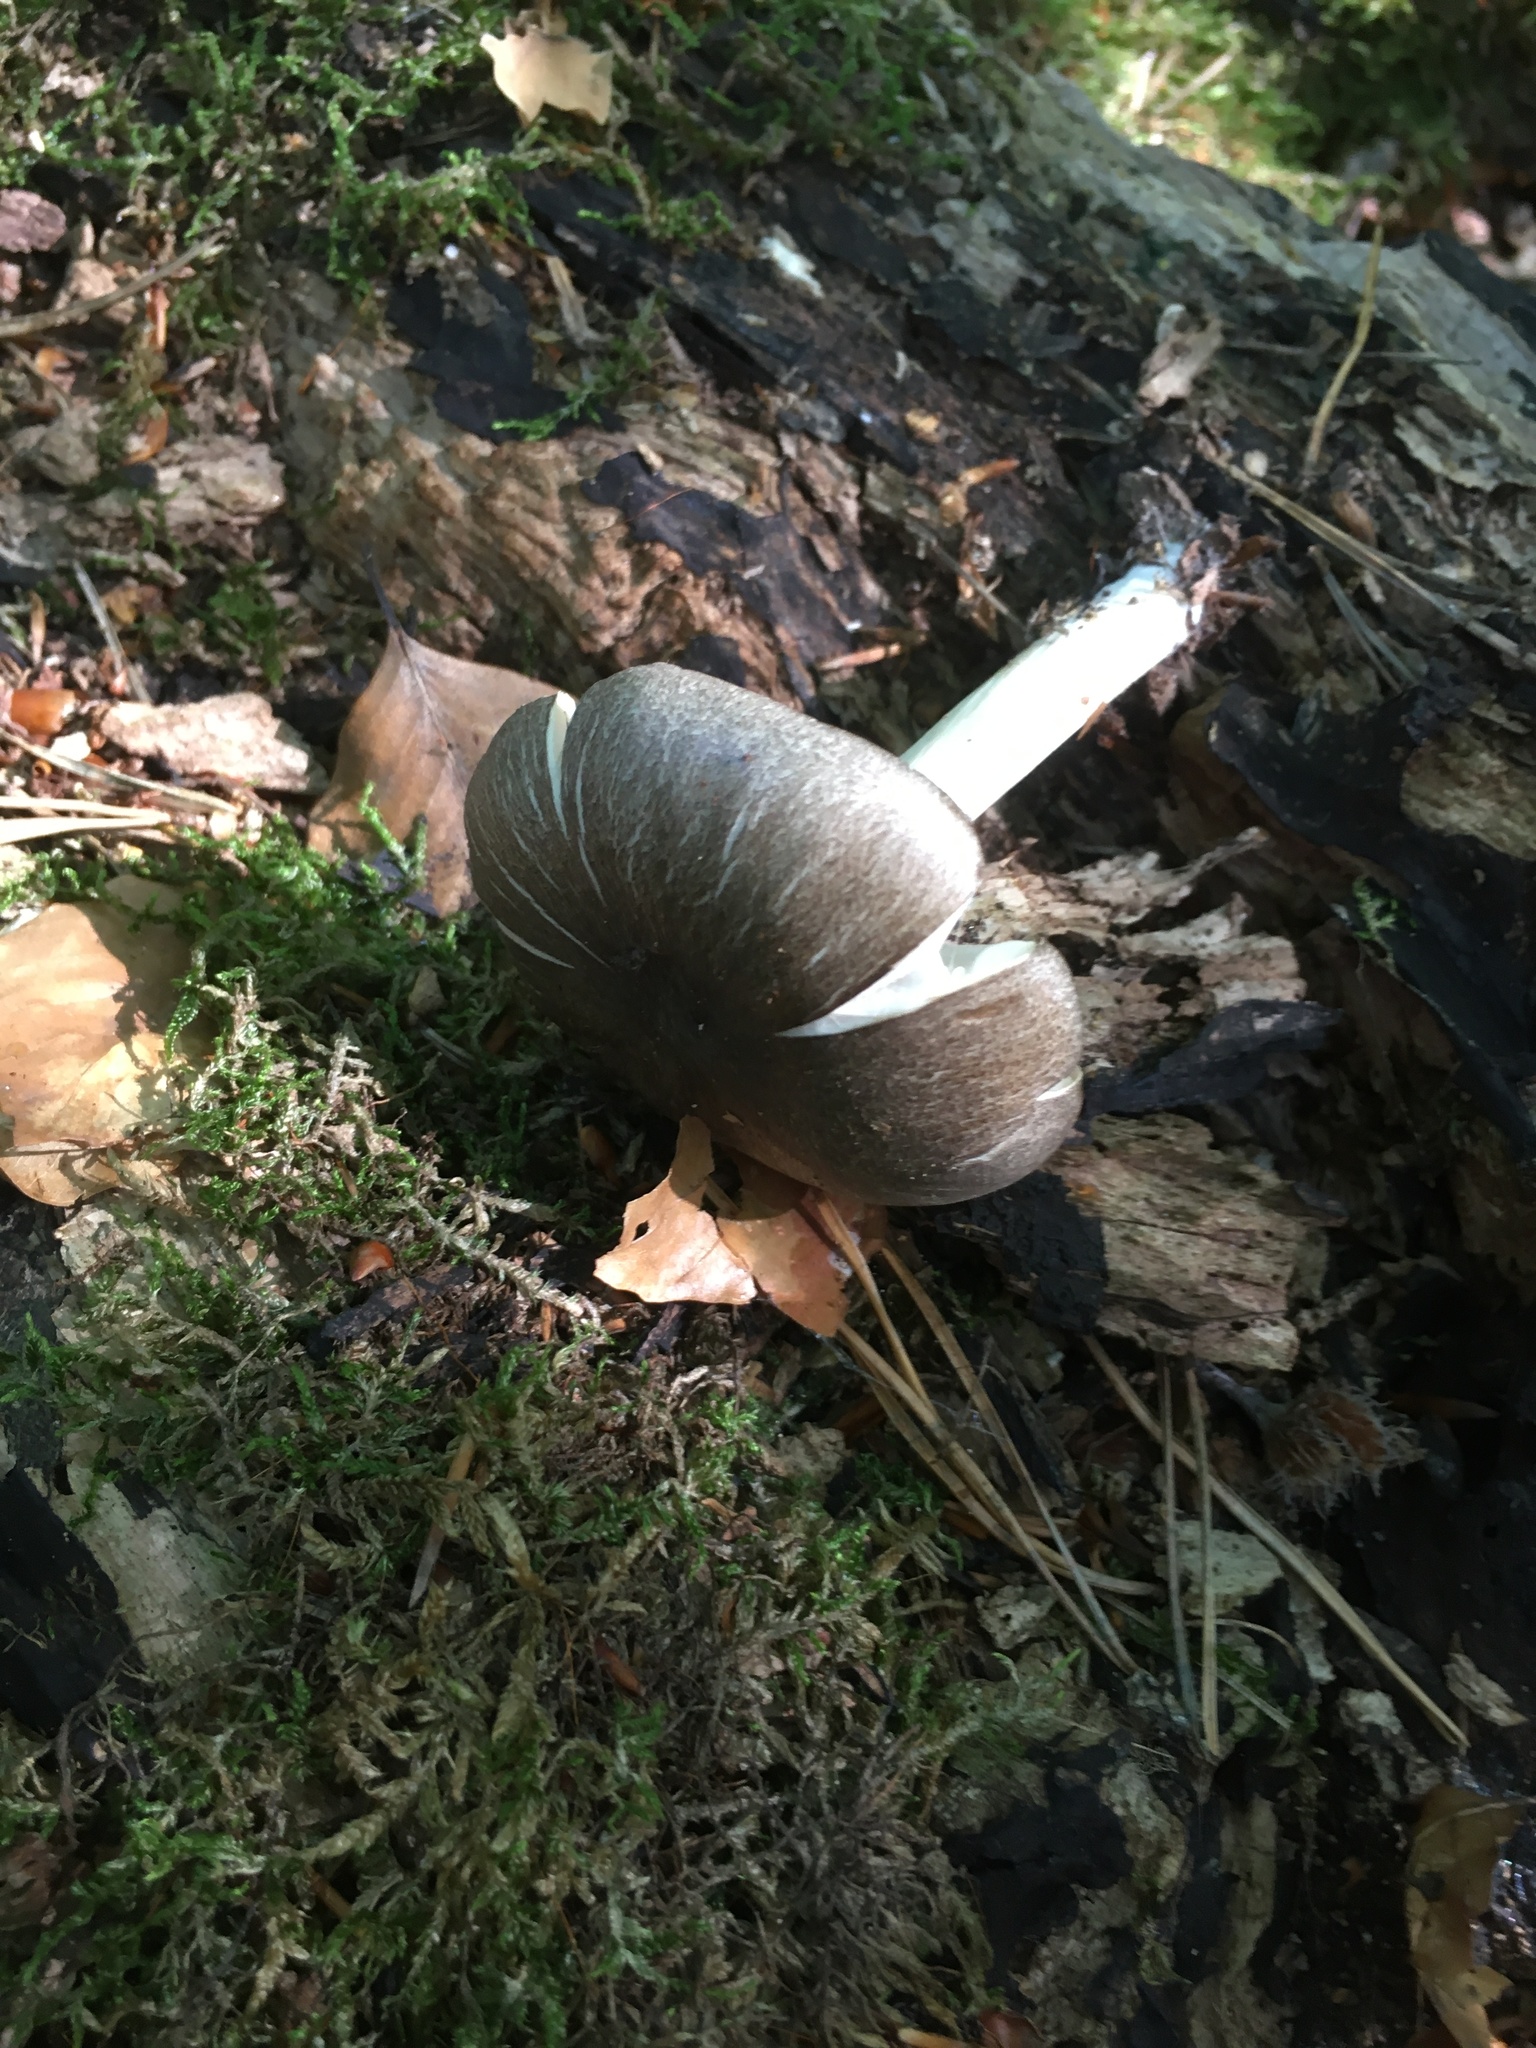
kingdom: Fungi
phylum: Basidiomycota
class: Agaricomycetes
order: Agaricales
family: Tricholomataceae
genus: Megacollybia
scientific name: Megacollybia platyphylla
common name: Whitelaced shank
